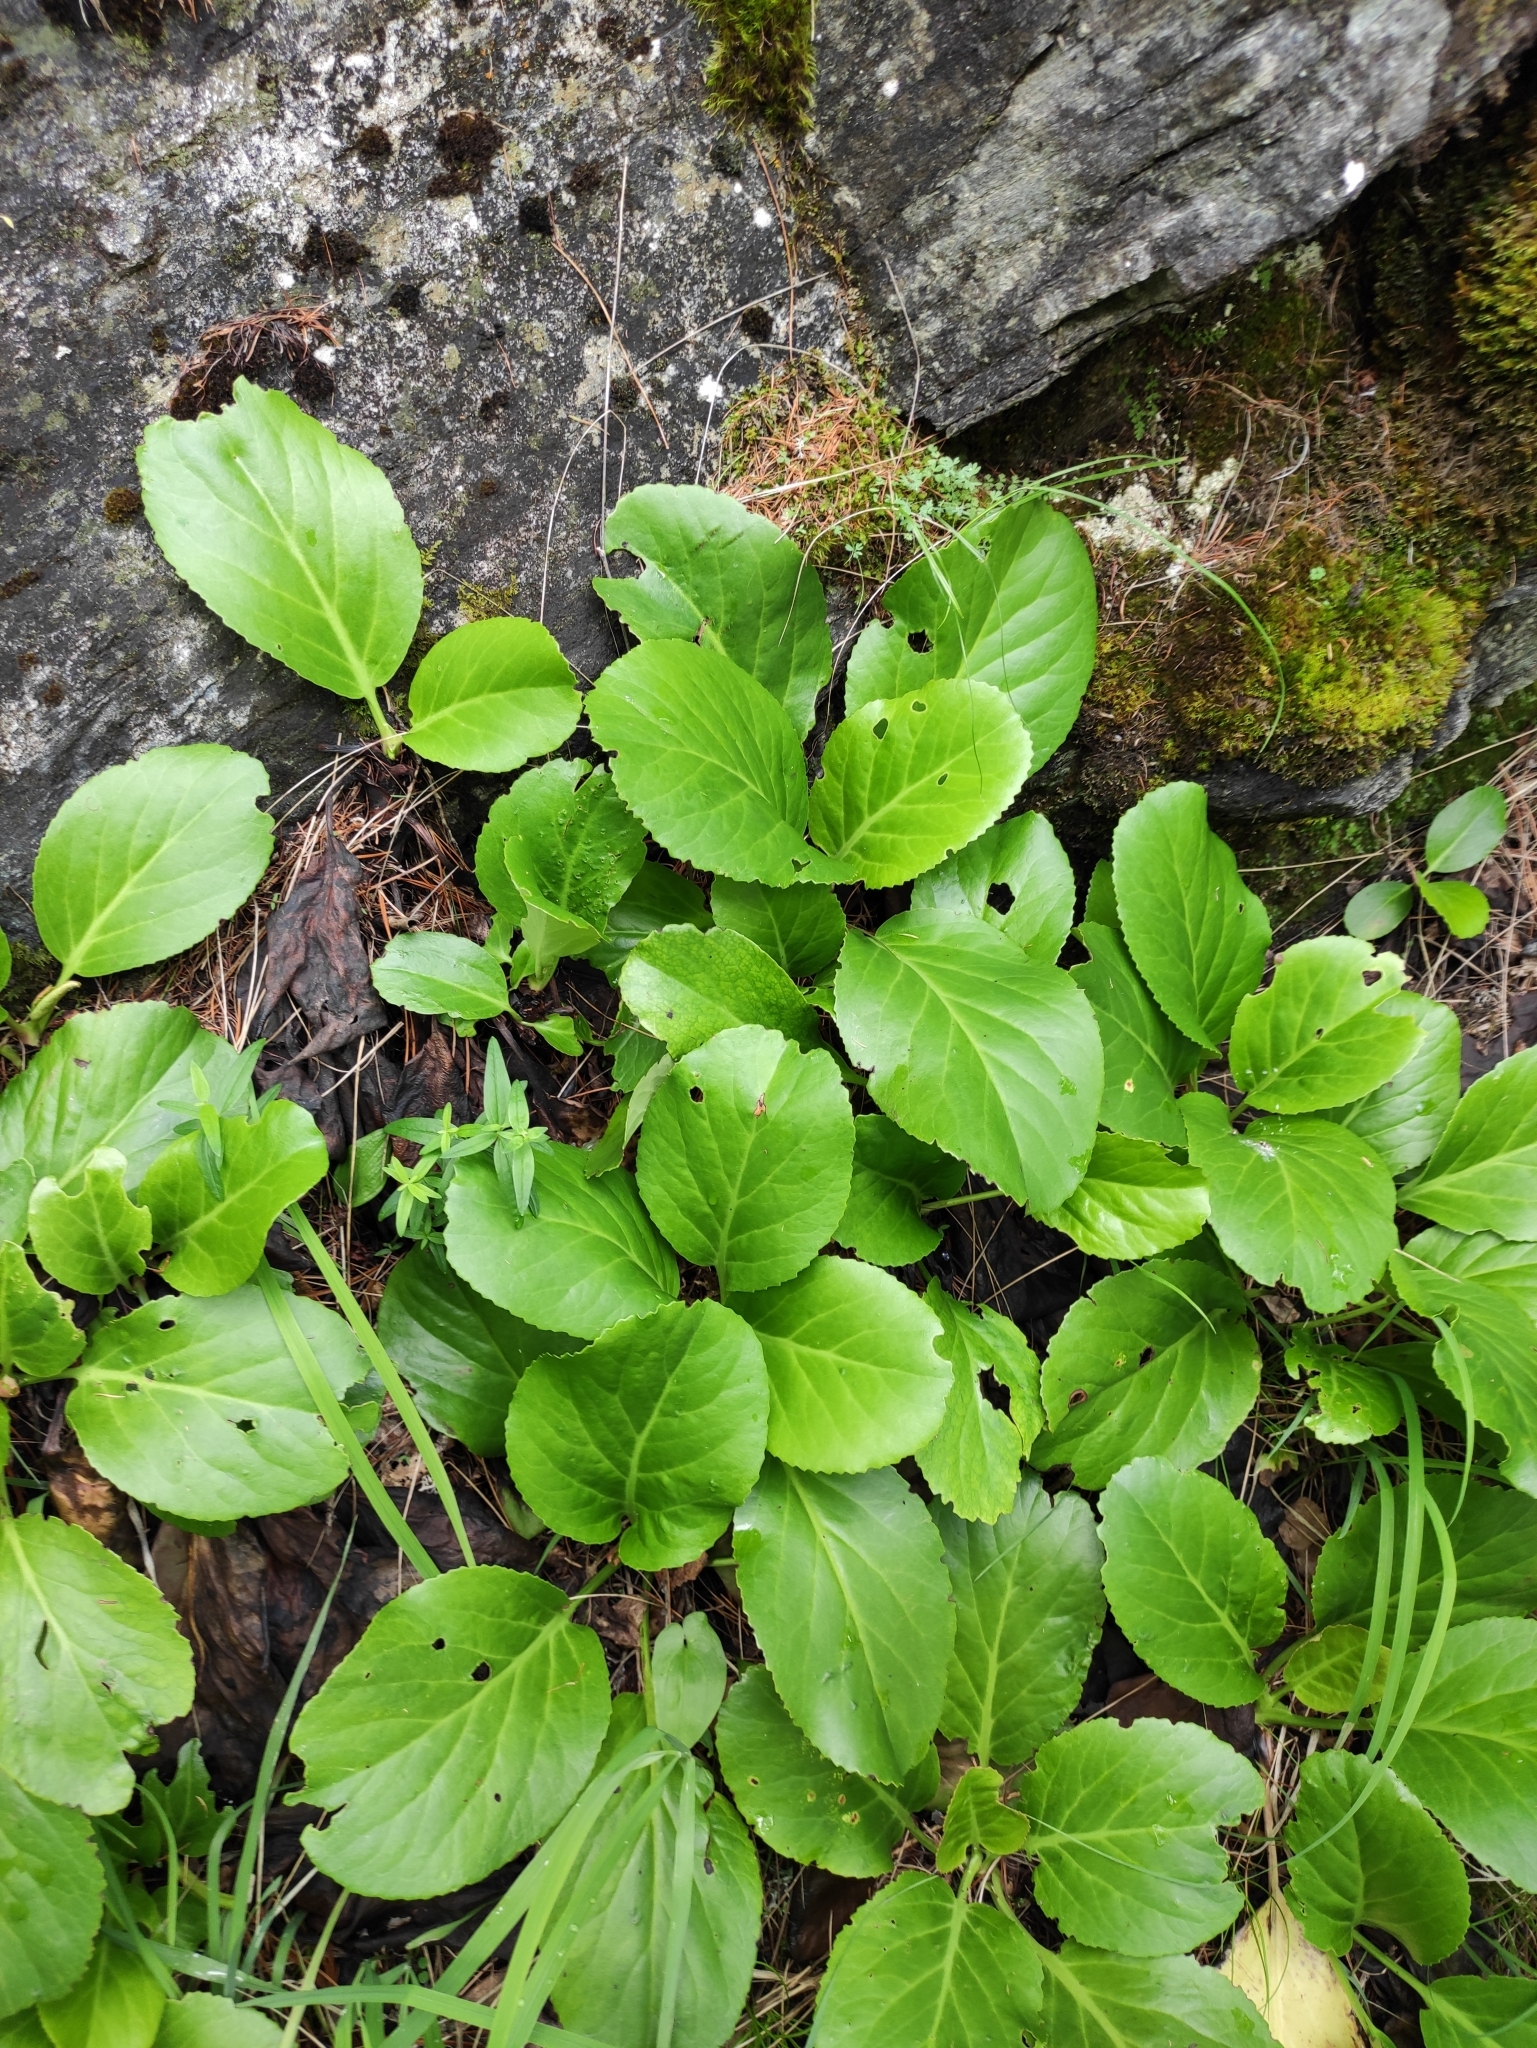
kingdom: Plantae
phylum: Tracheophyta
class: Magnoliopsida
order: Saxifragales
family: Saxifragaceae
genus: Bergenia
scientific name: Bergenia crassifolia
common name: Elephant-ears
